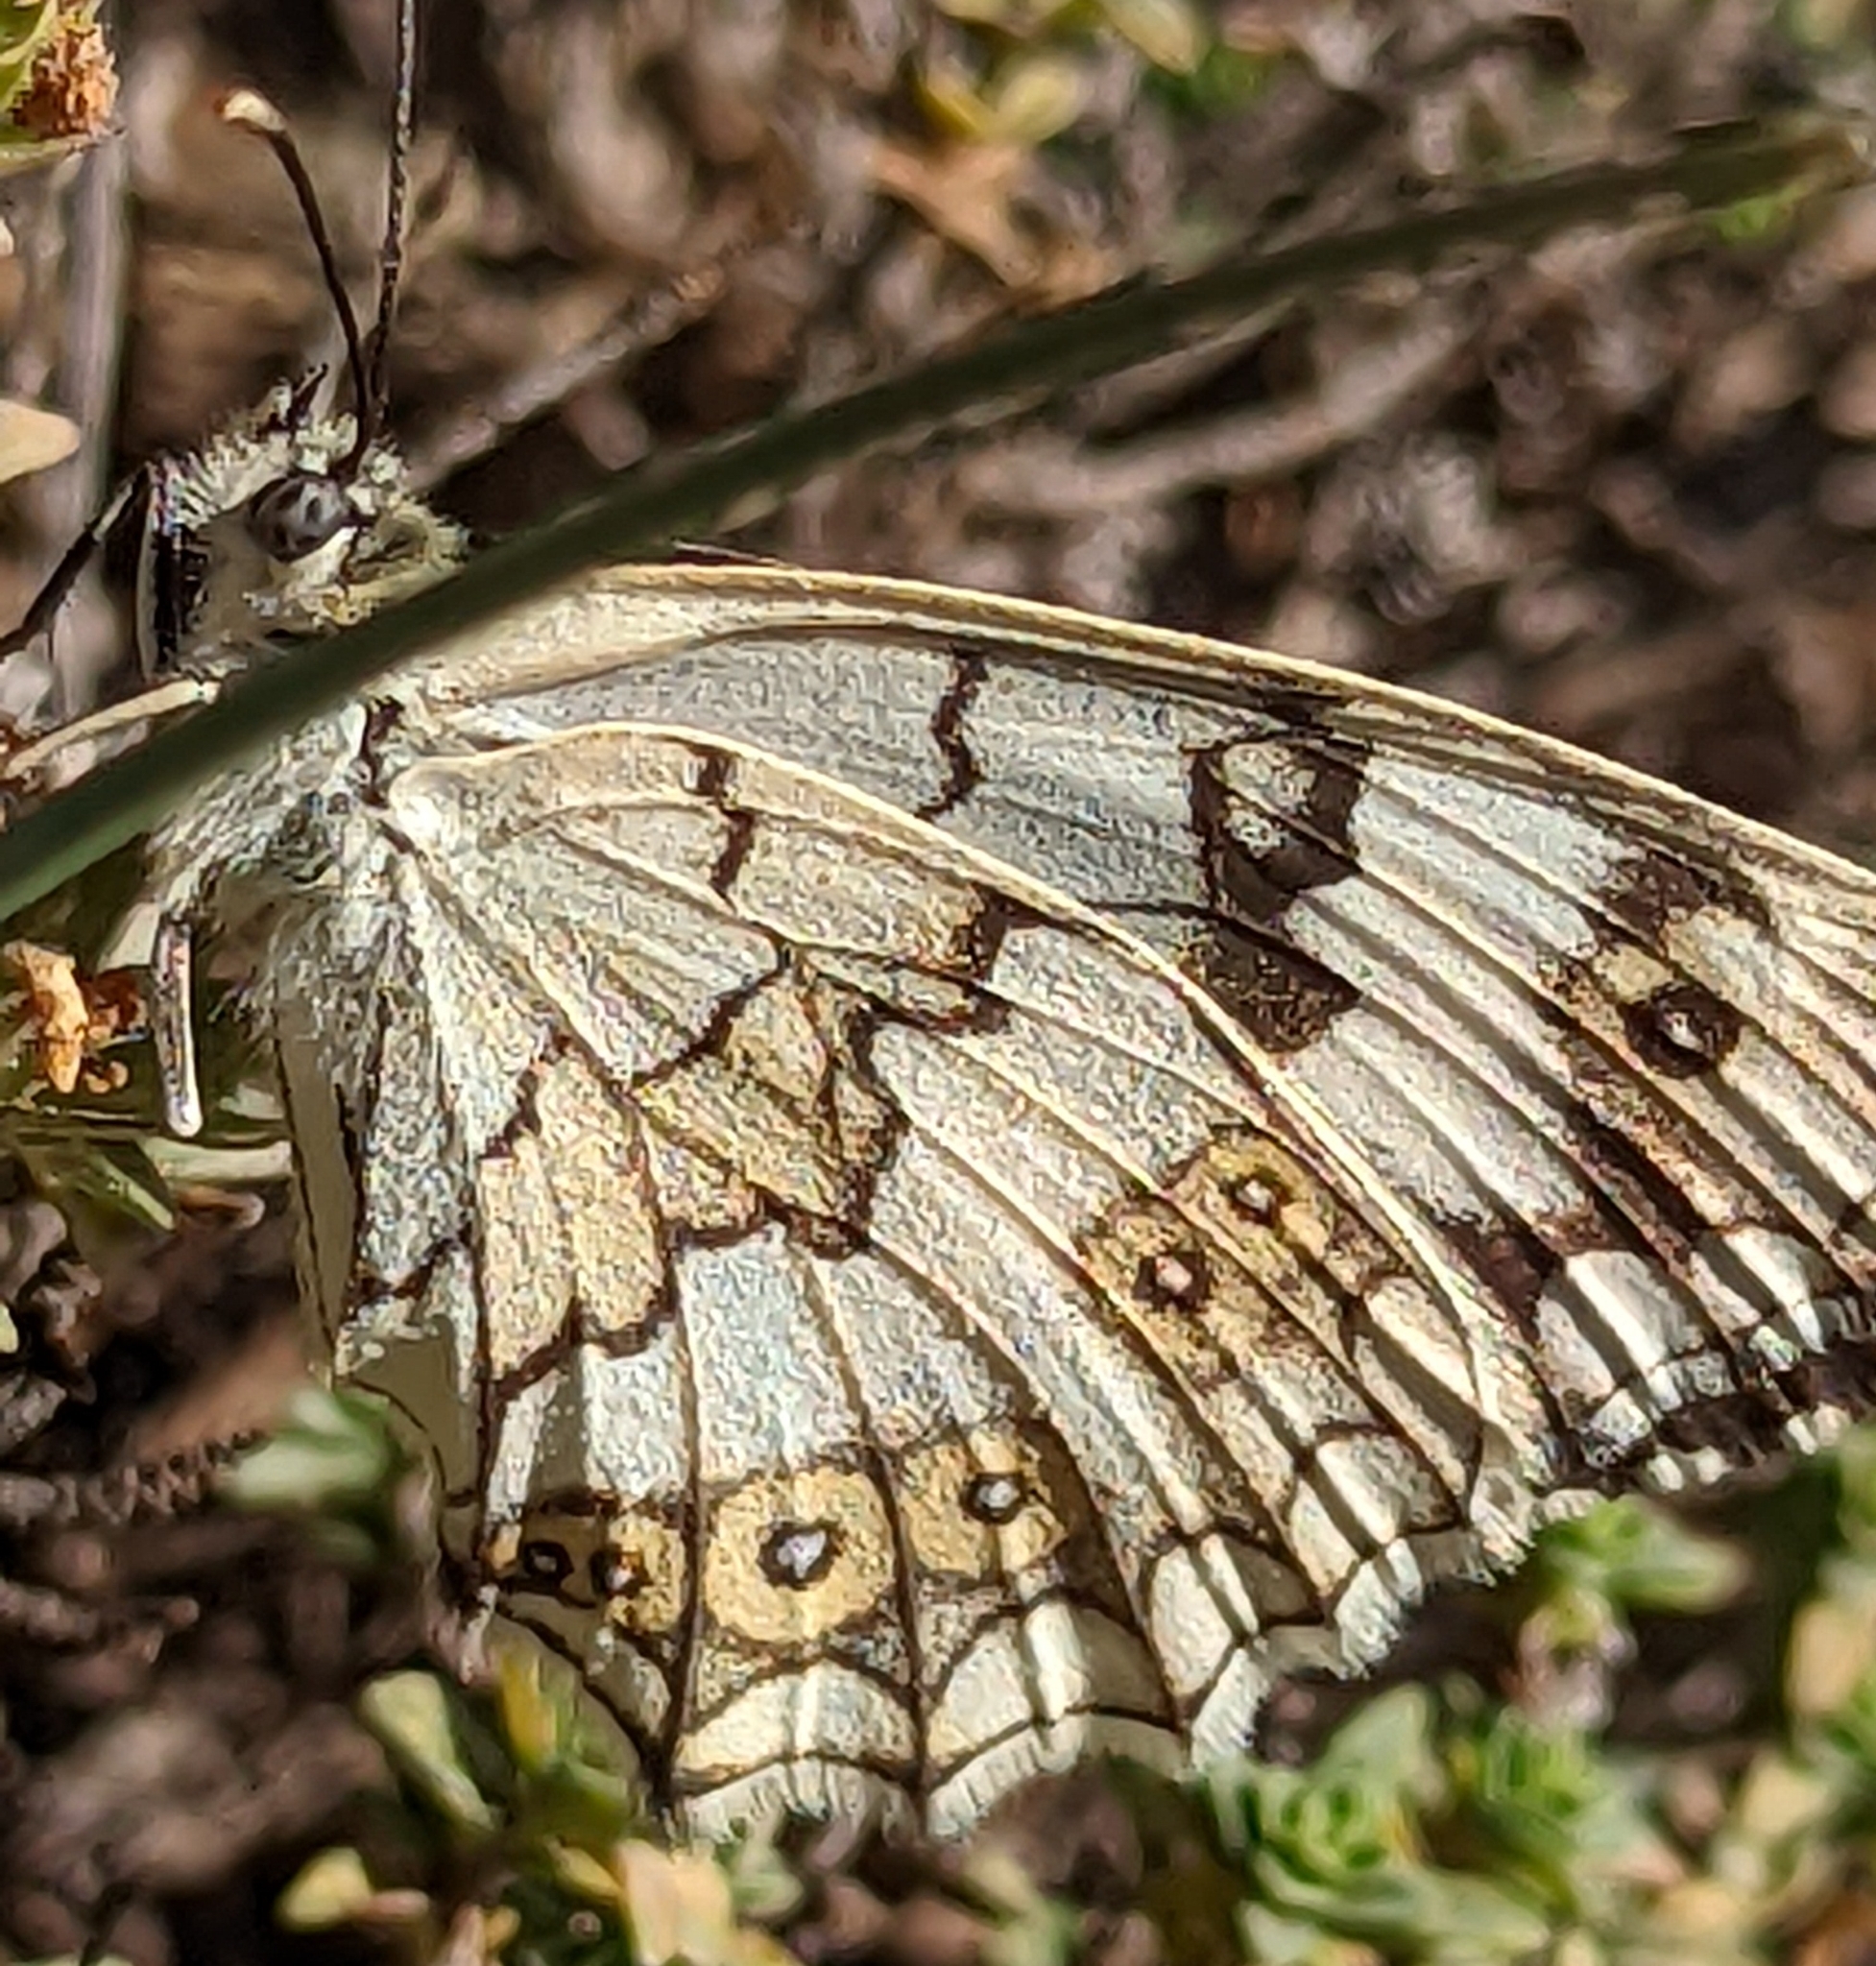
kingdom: Animalia
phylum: Arthropoda
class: Insecta
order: Lepidoptera
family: Nymphalidae
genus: Melanargia
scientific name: Melanargia larissa
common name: Balkan marbled white
